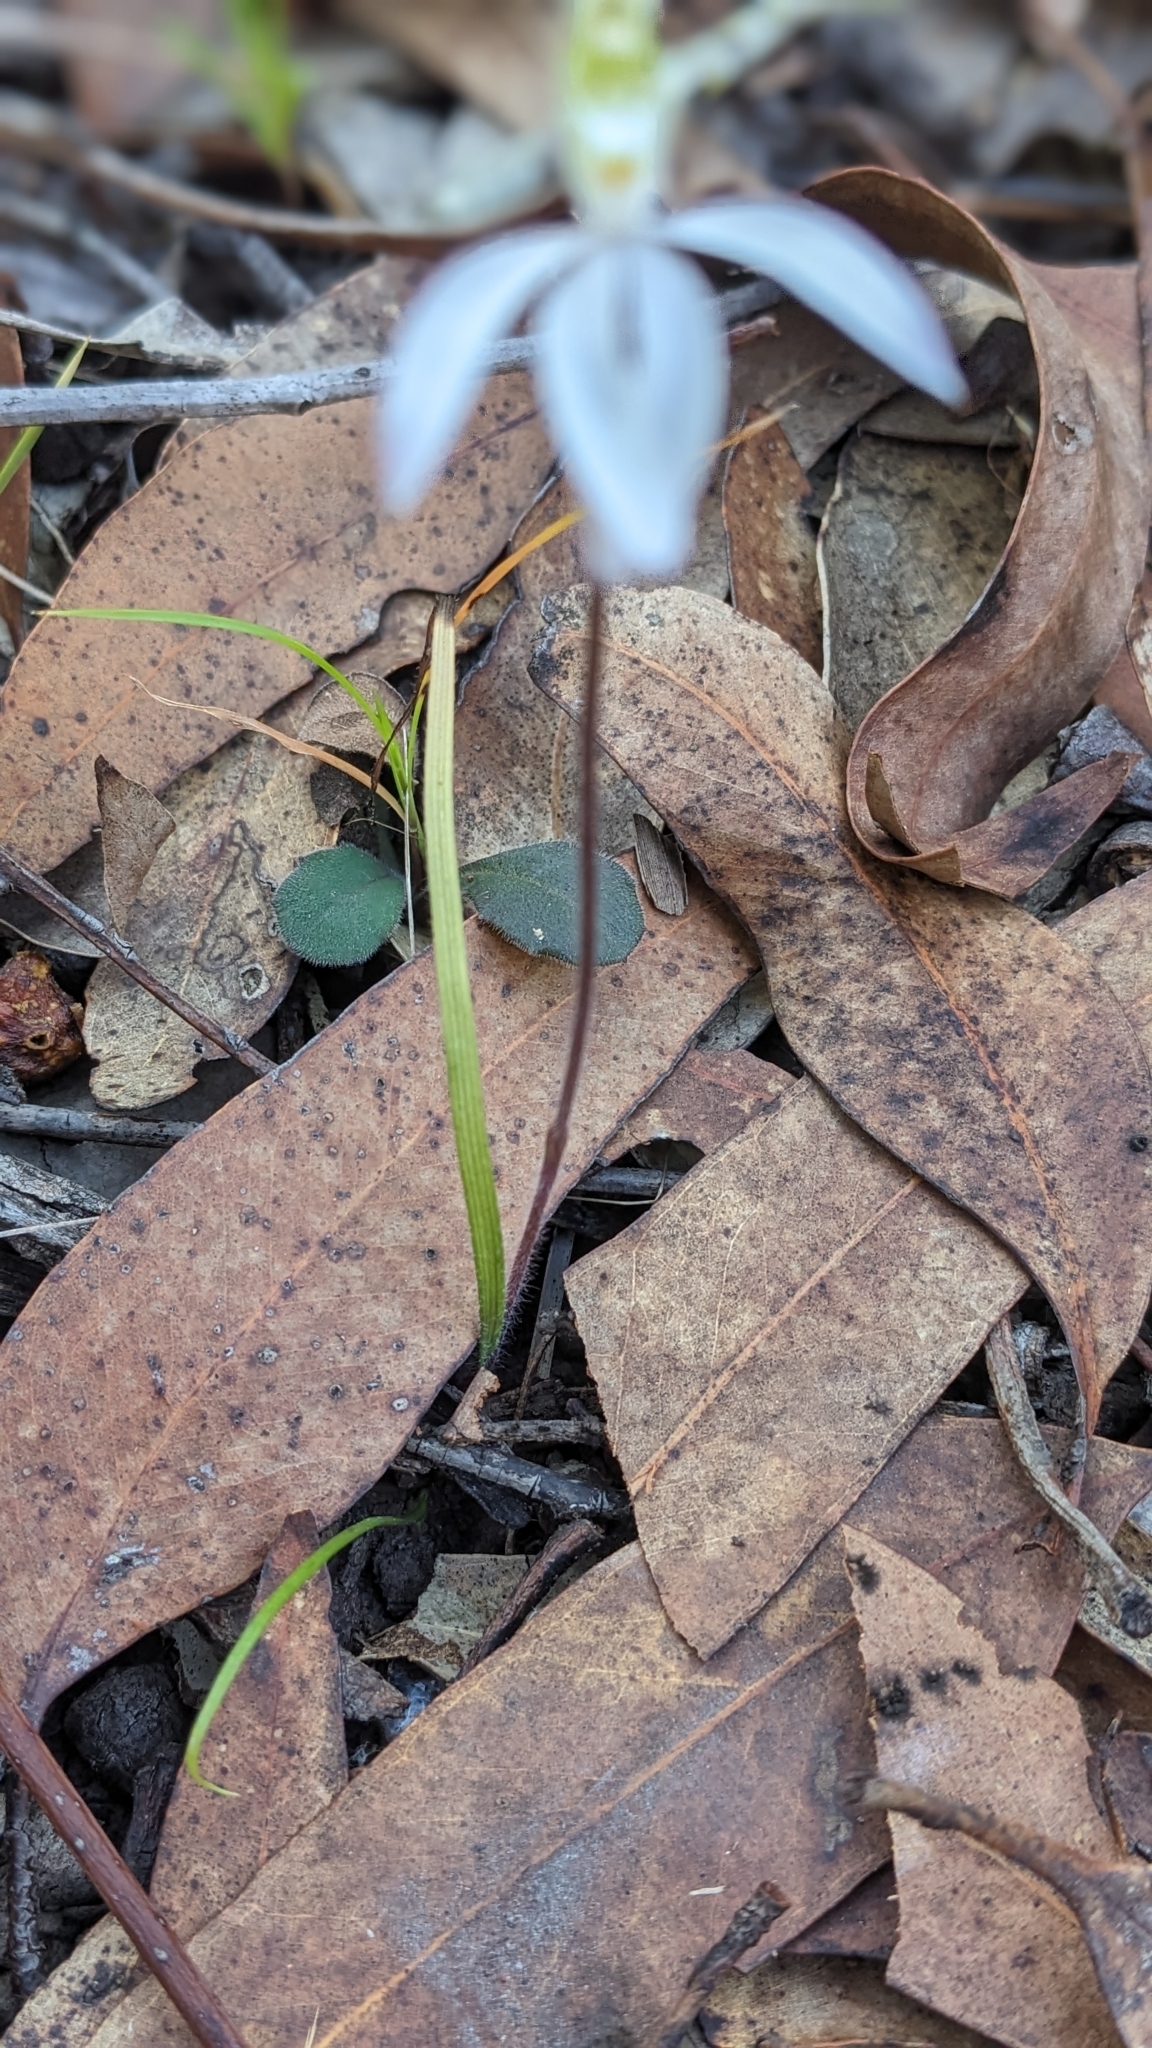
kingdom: Plantae
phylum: Tracheophyta
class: Liliopsida
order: Asparagales
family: Orchidaceae
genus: Caladenia
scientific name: Caladenia catenata
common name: White caladenia
